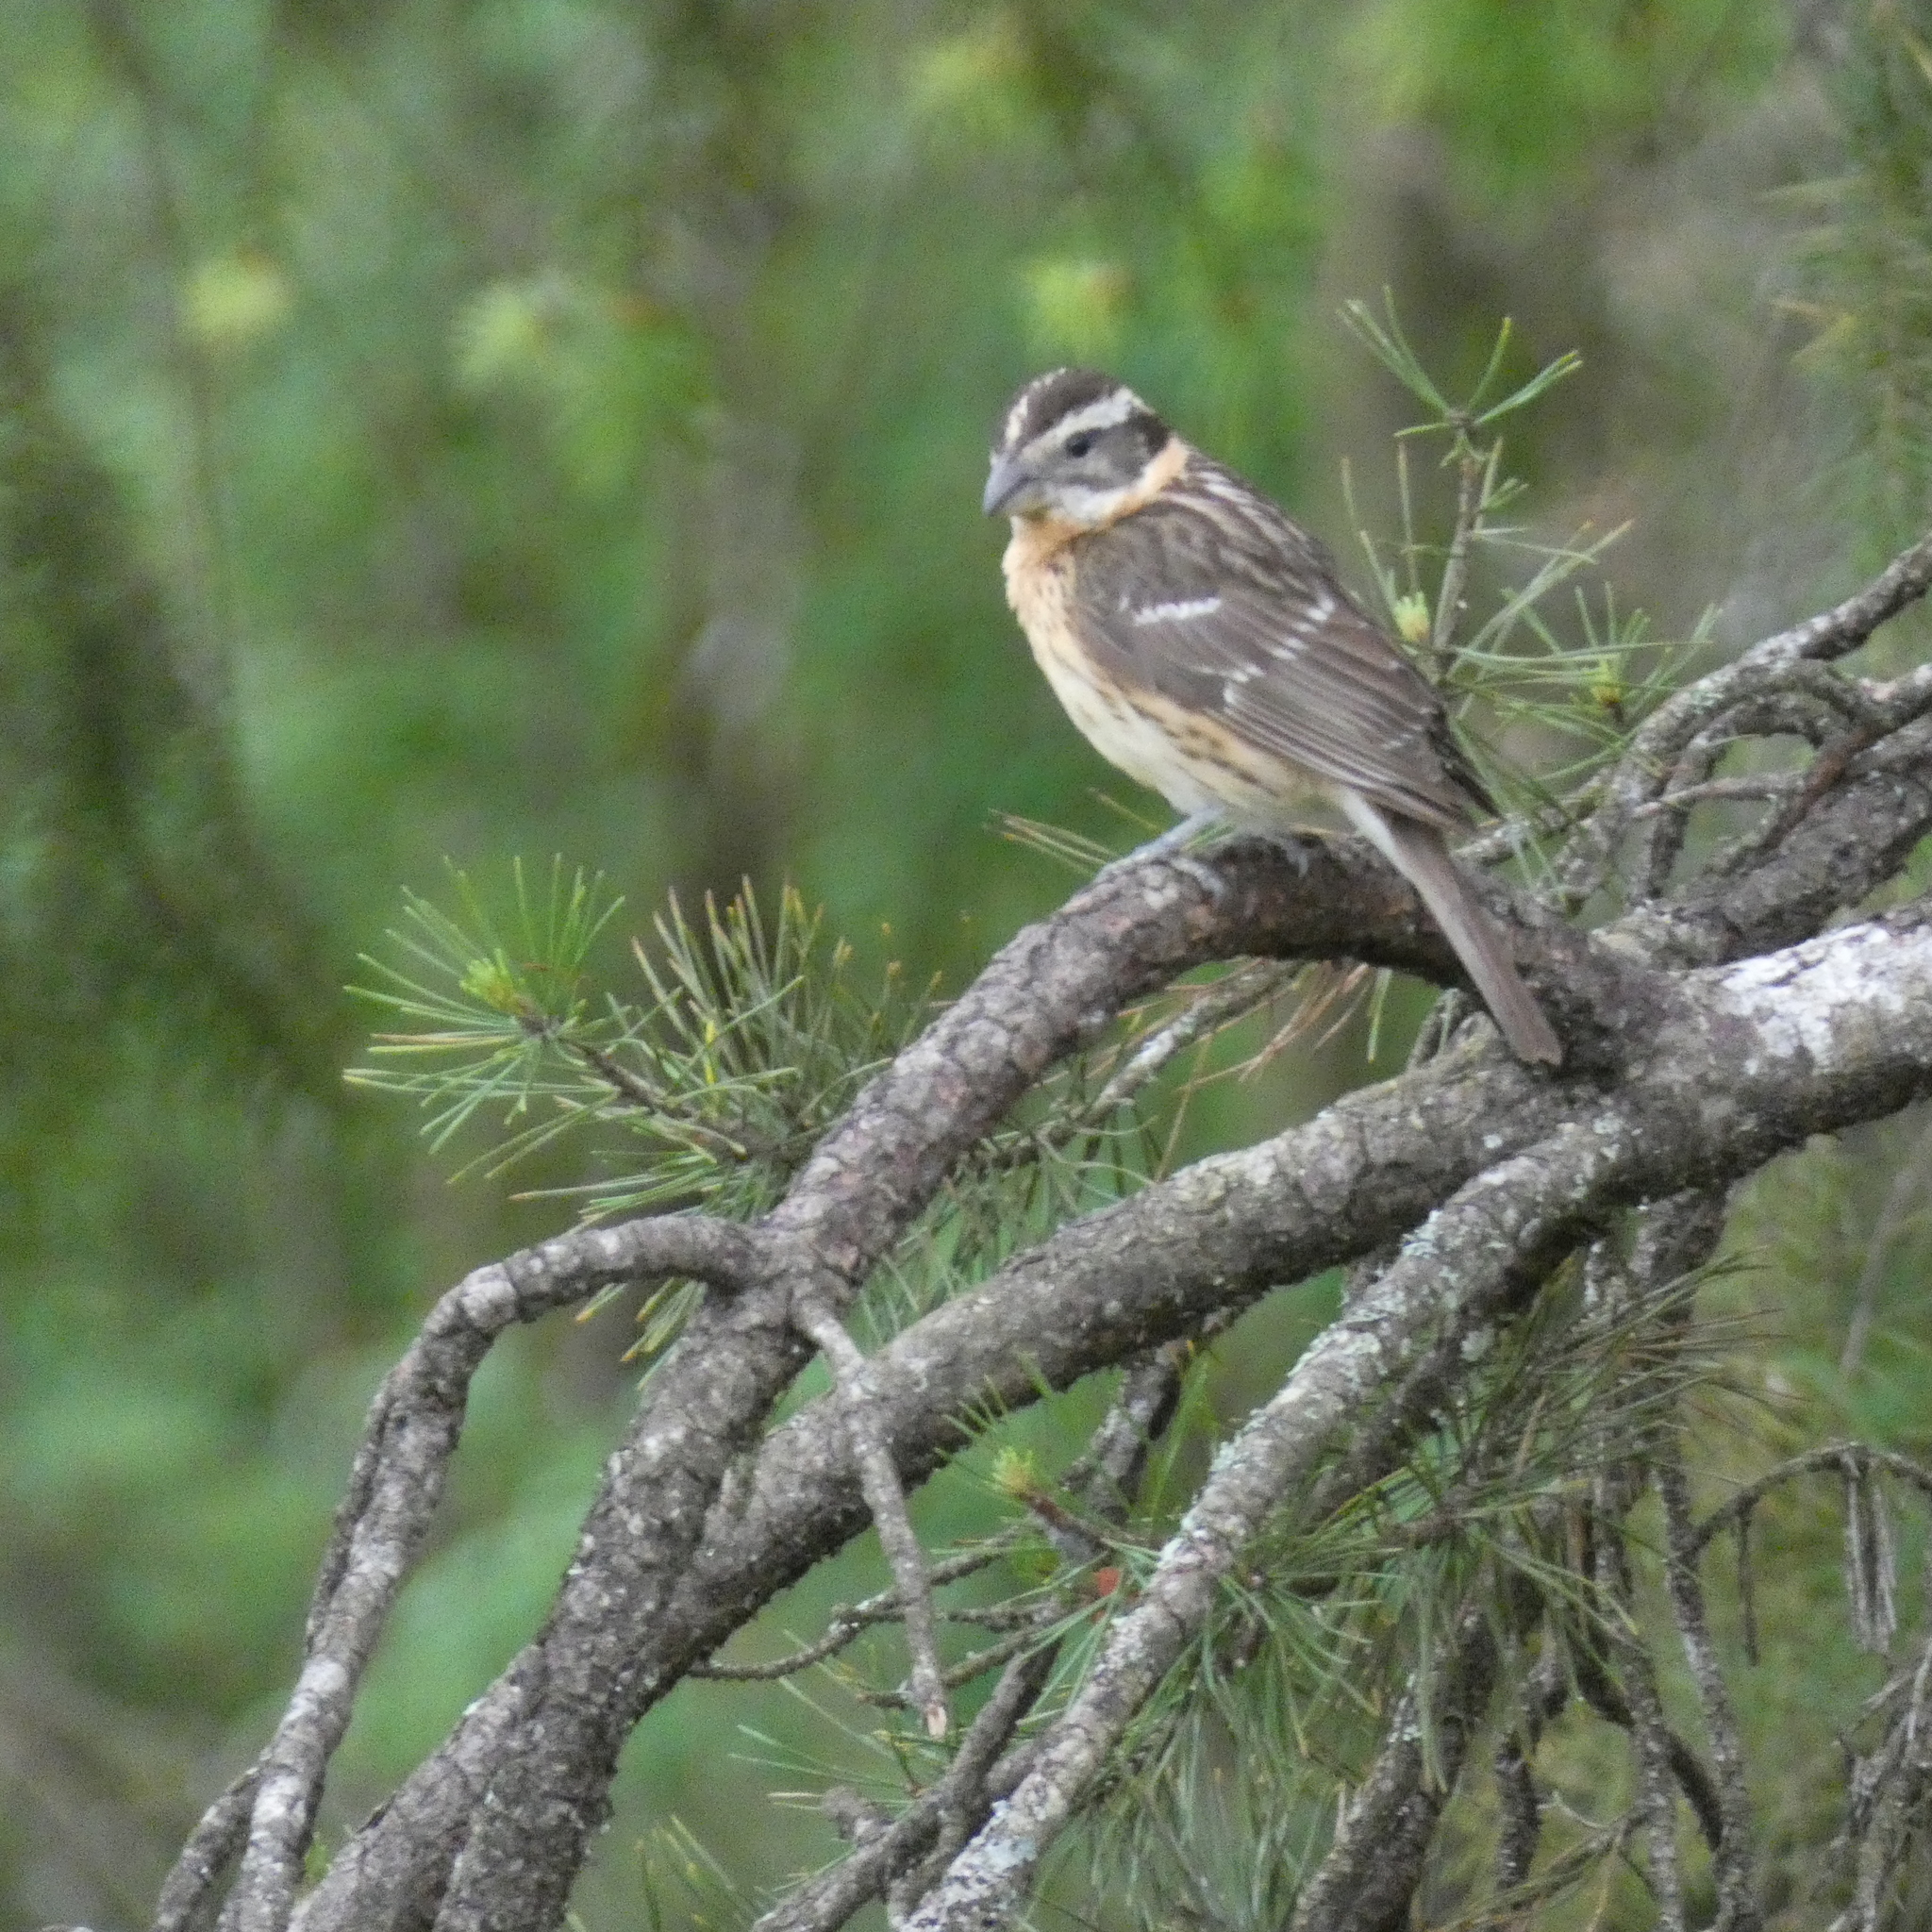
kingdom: Animalia
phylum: Chordata
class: Aves
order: Passeriformes
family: Cardinalidae
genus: Pheucticus
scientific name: Pheucticus melanocephalus
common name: Black-headed grosbeak
